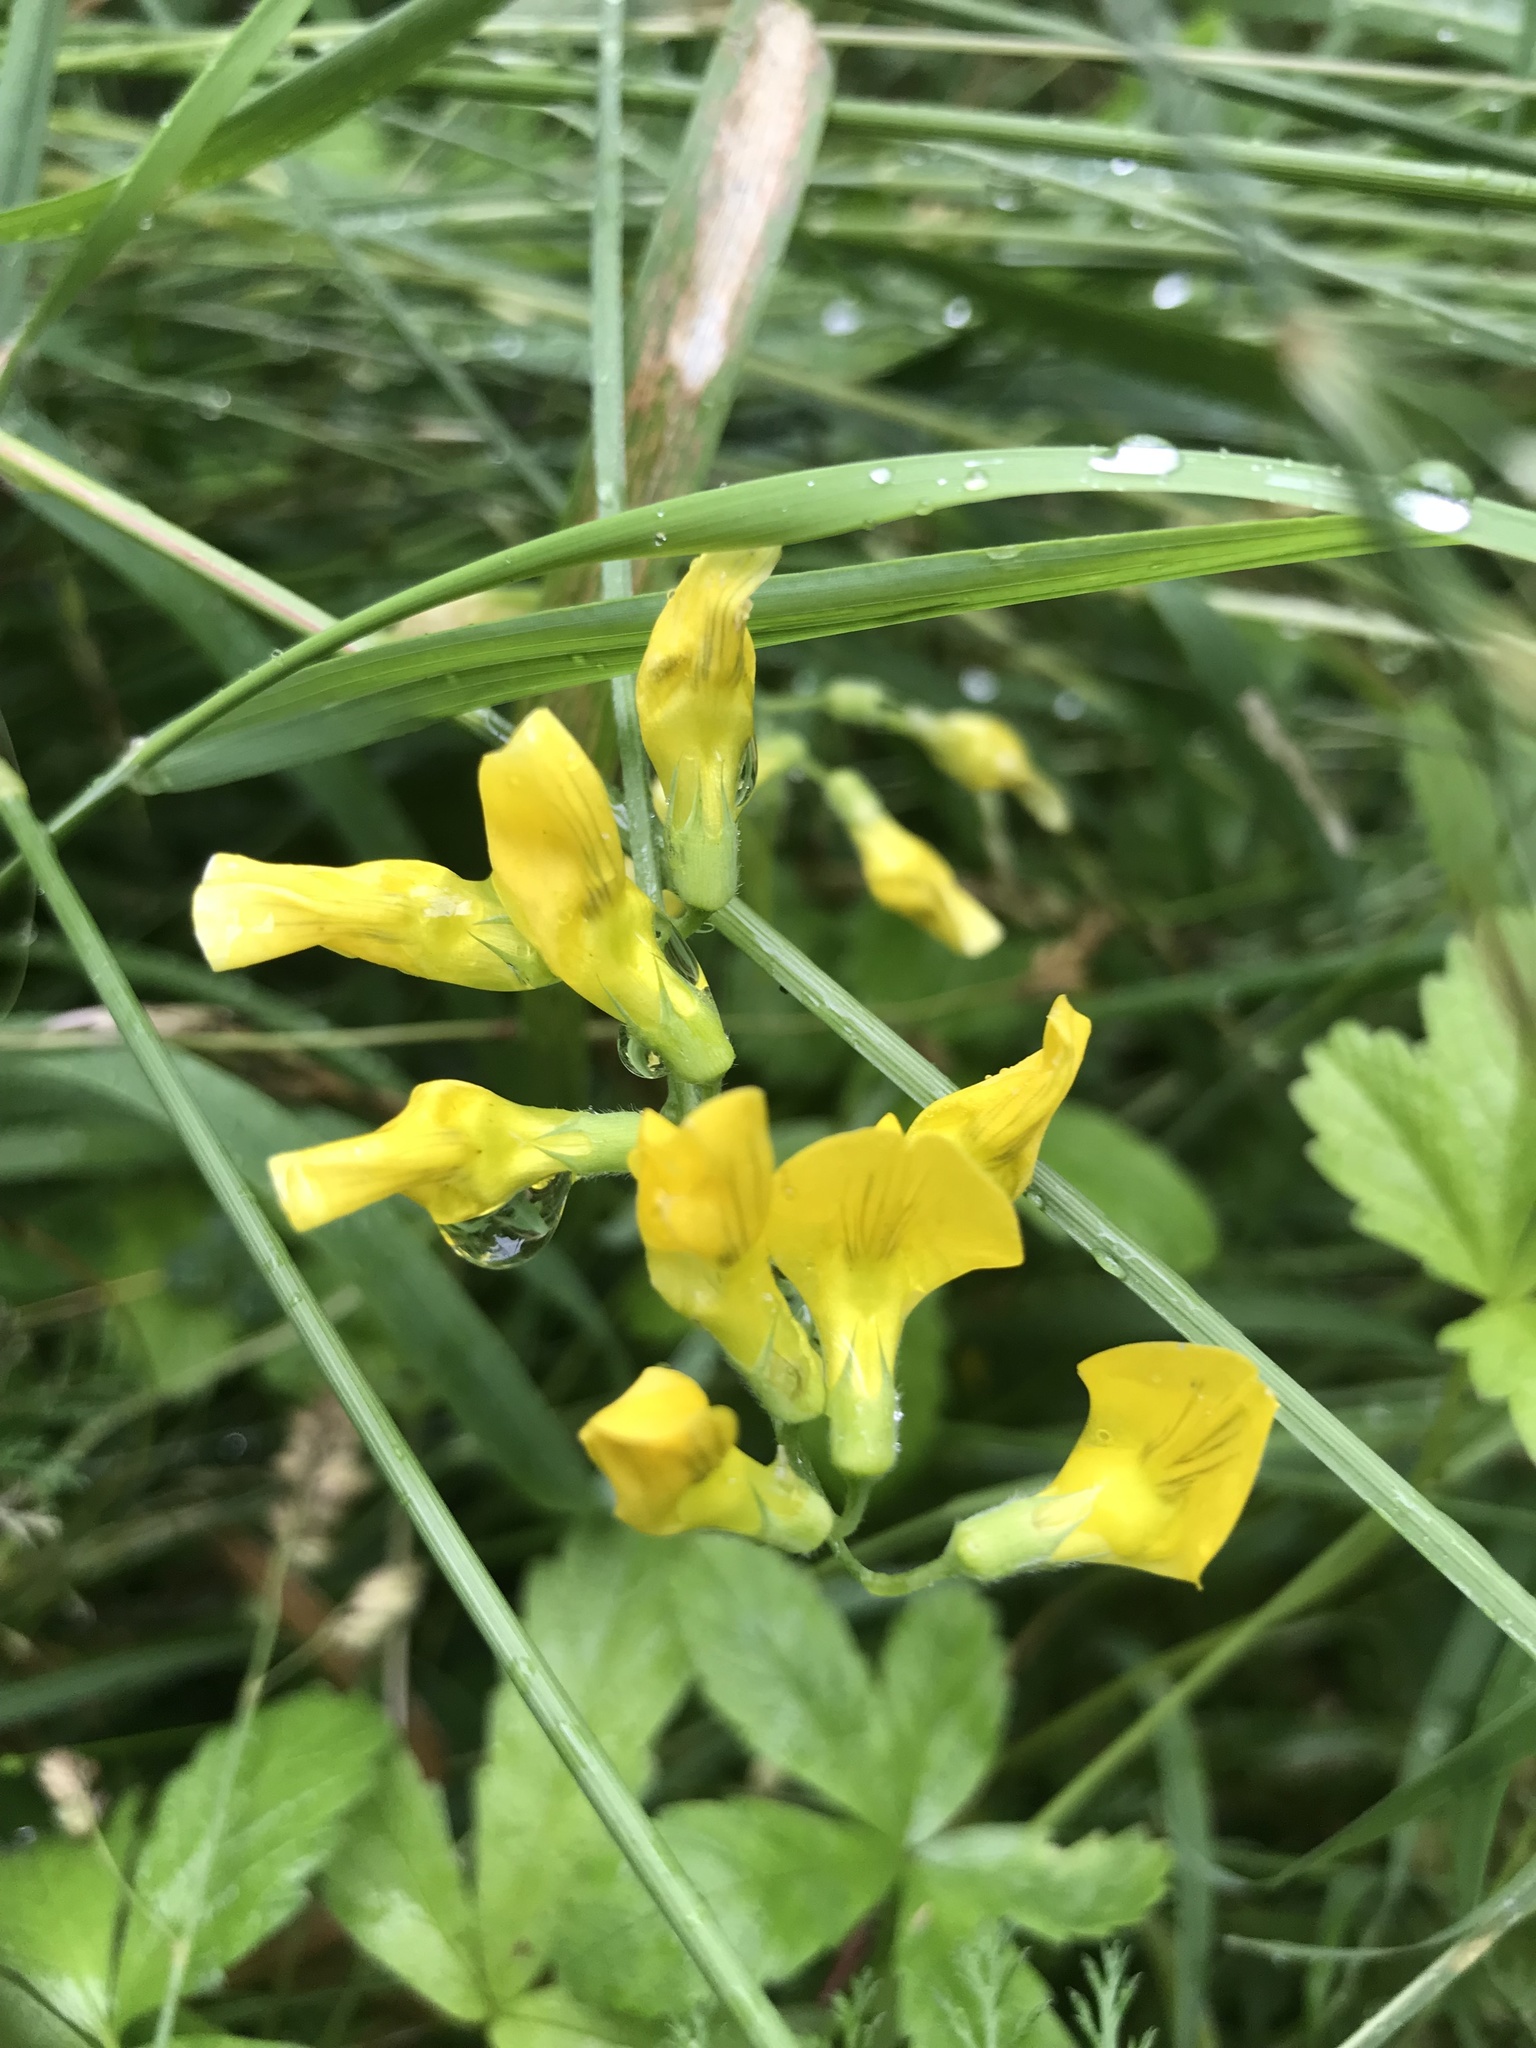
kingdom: Plantae
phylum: Tracheophyta
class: Magnoliopsida
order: Fabales
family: Fabaceae
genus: Lathyrus
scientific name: Lathyrus pratensis
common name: Meadow vetchling
